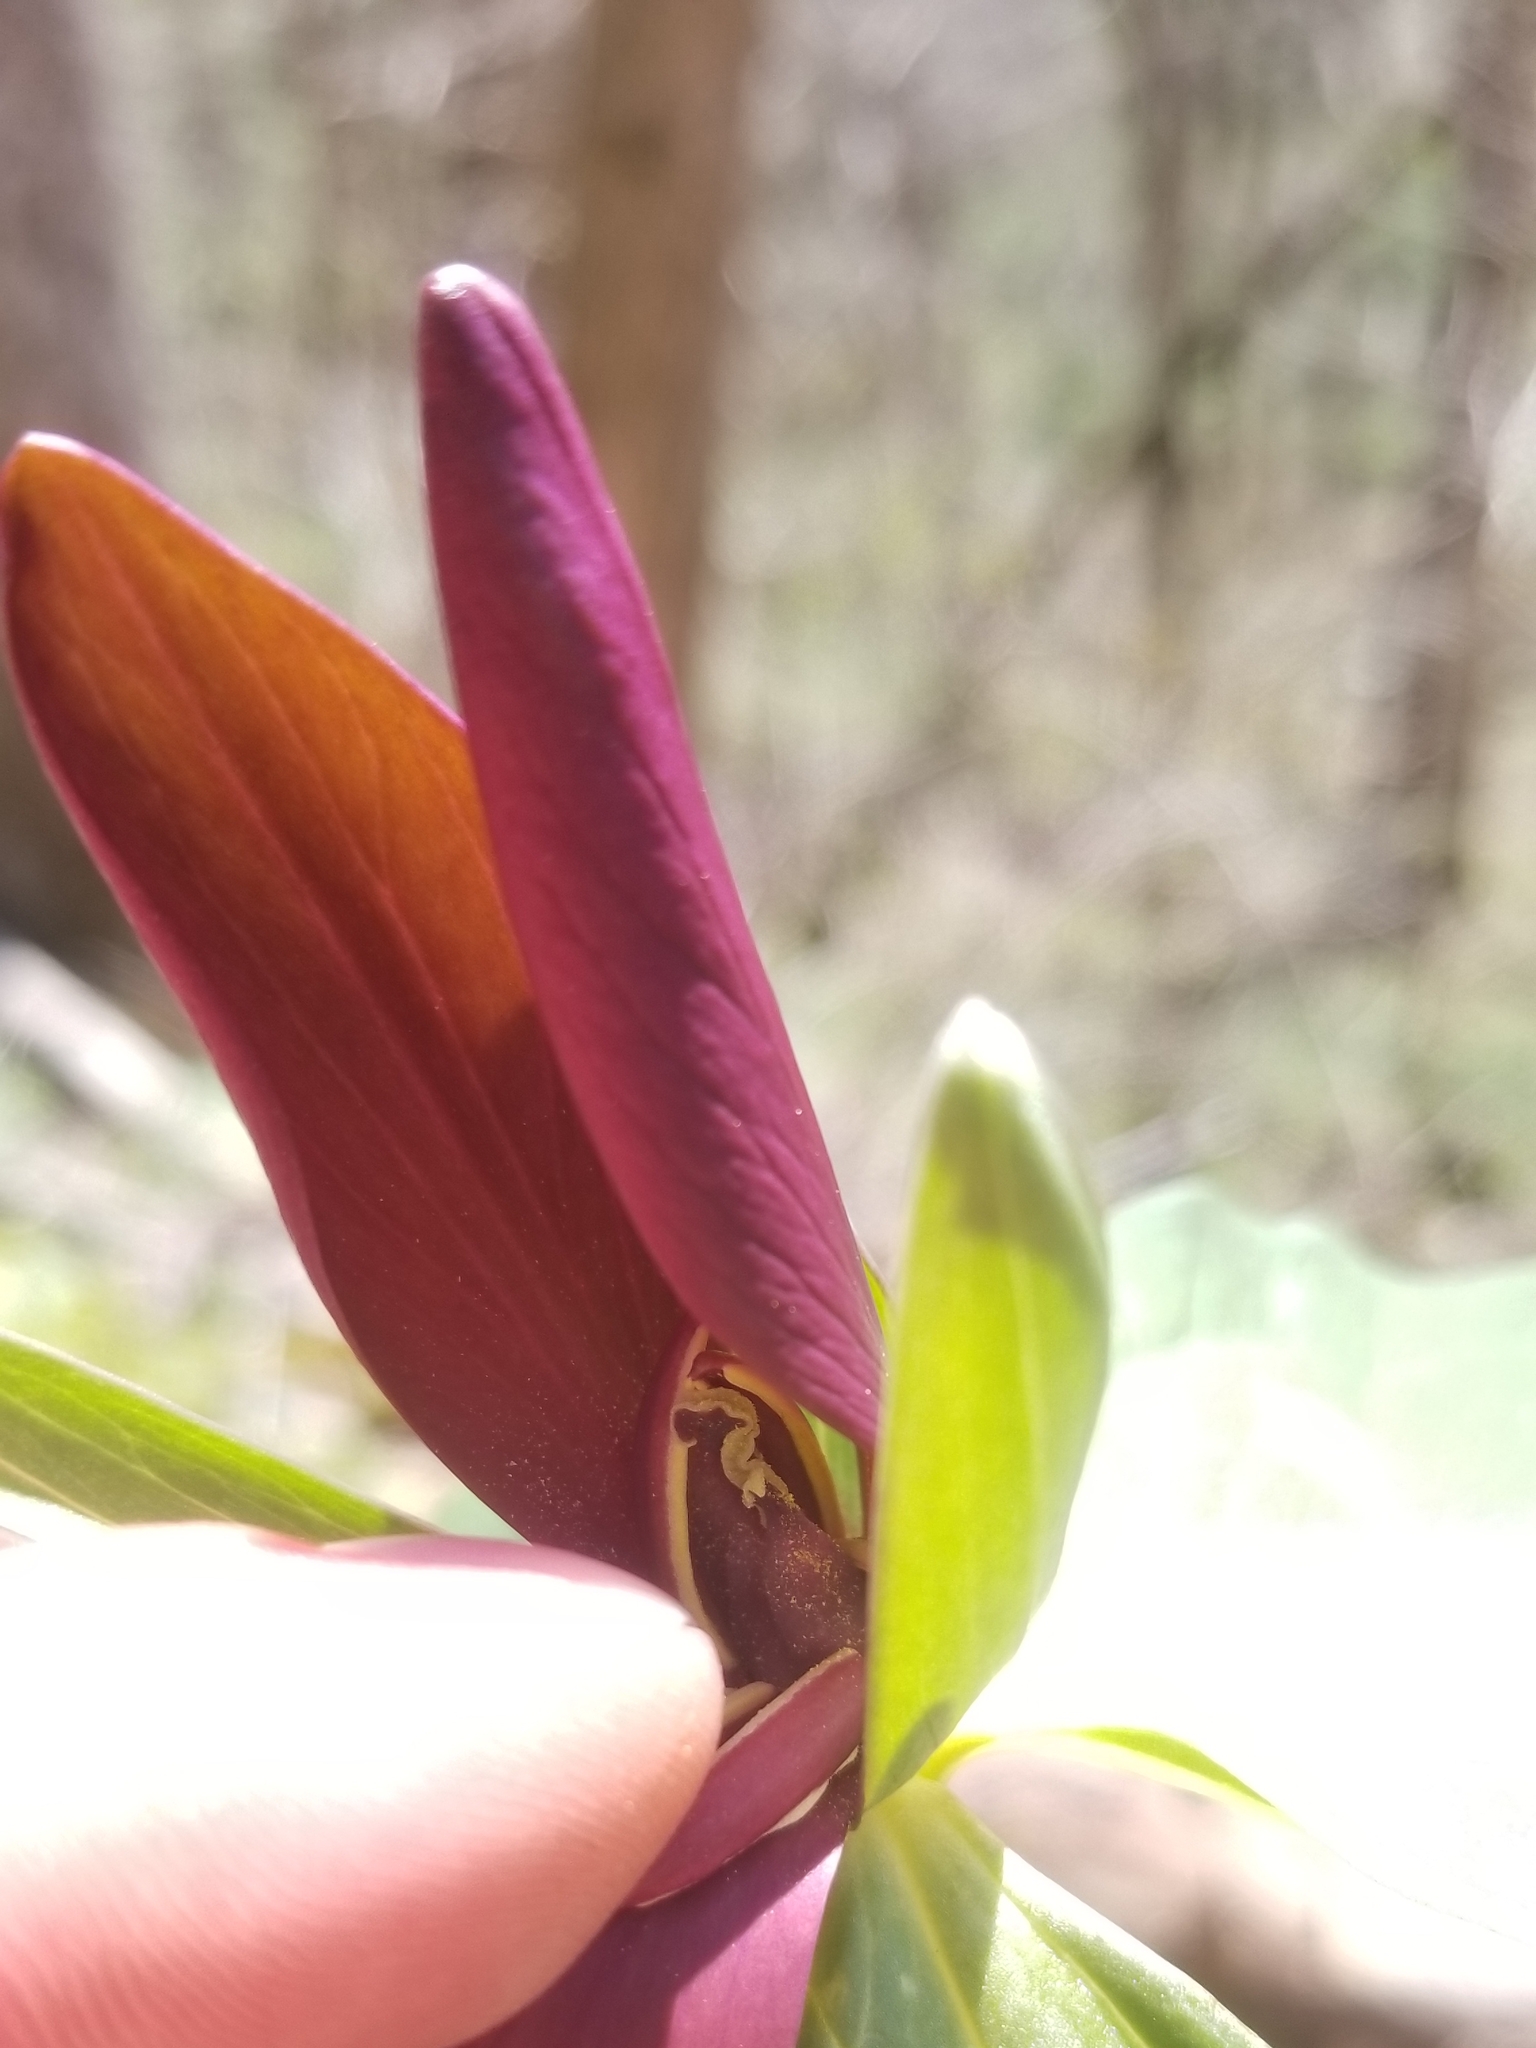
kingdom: Plantae
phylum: Tracheophyta
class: Liliopsida
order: Liliales
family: Melanthiaceae
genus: Trillium
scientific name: Trillium cuneatum
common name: Cuneate trillium
